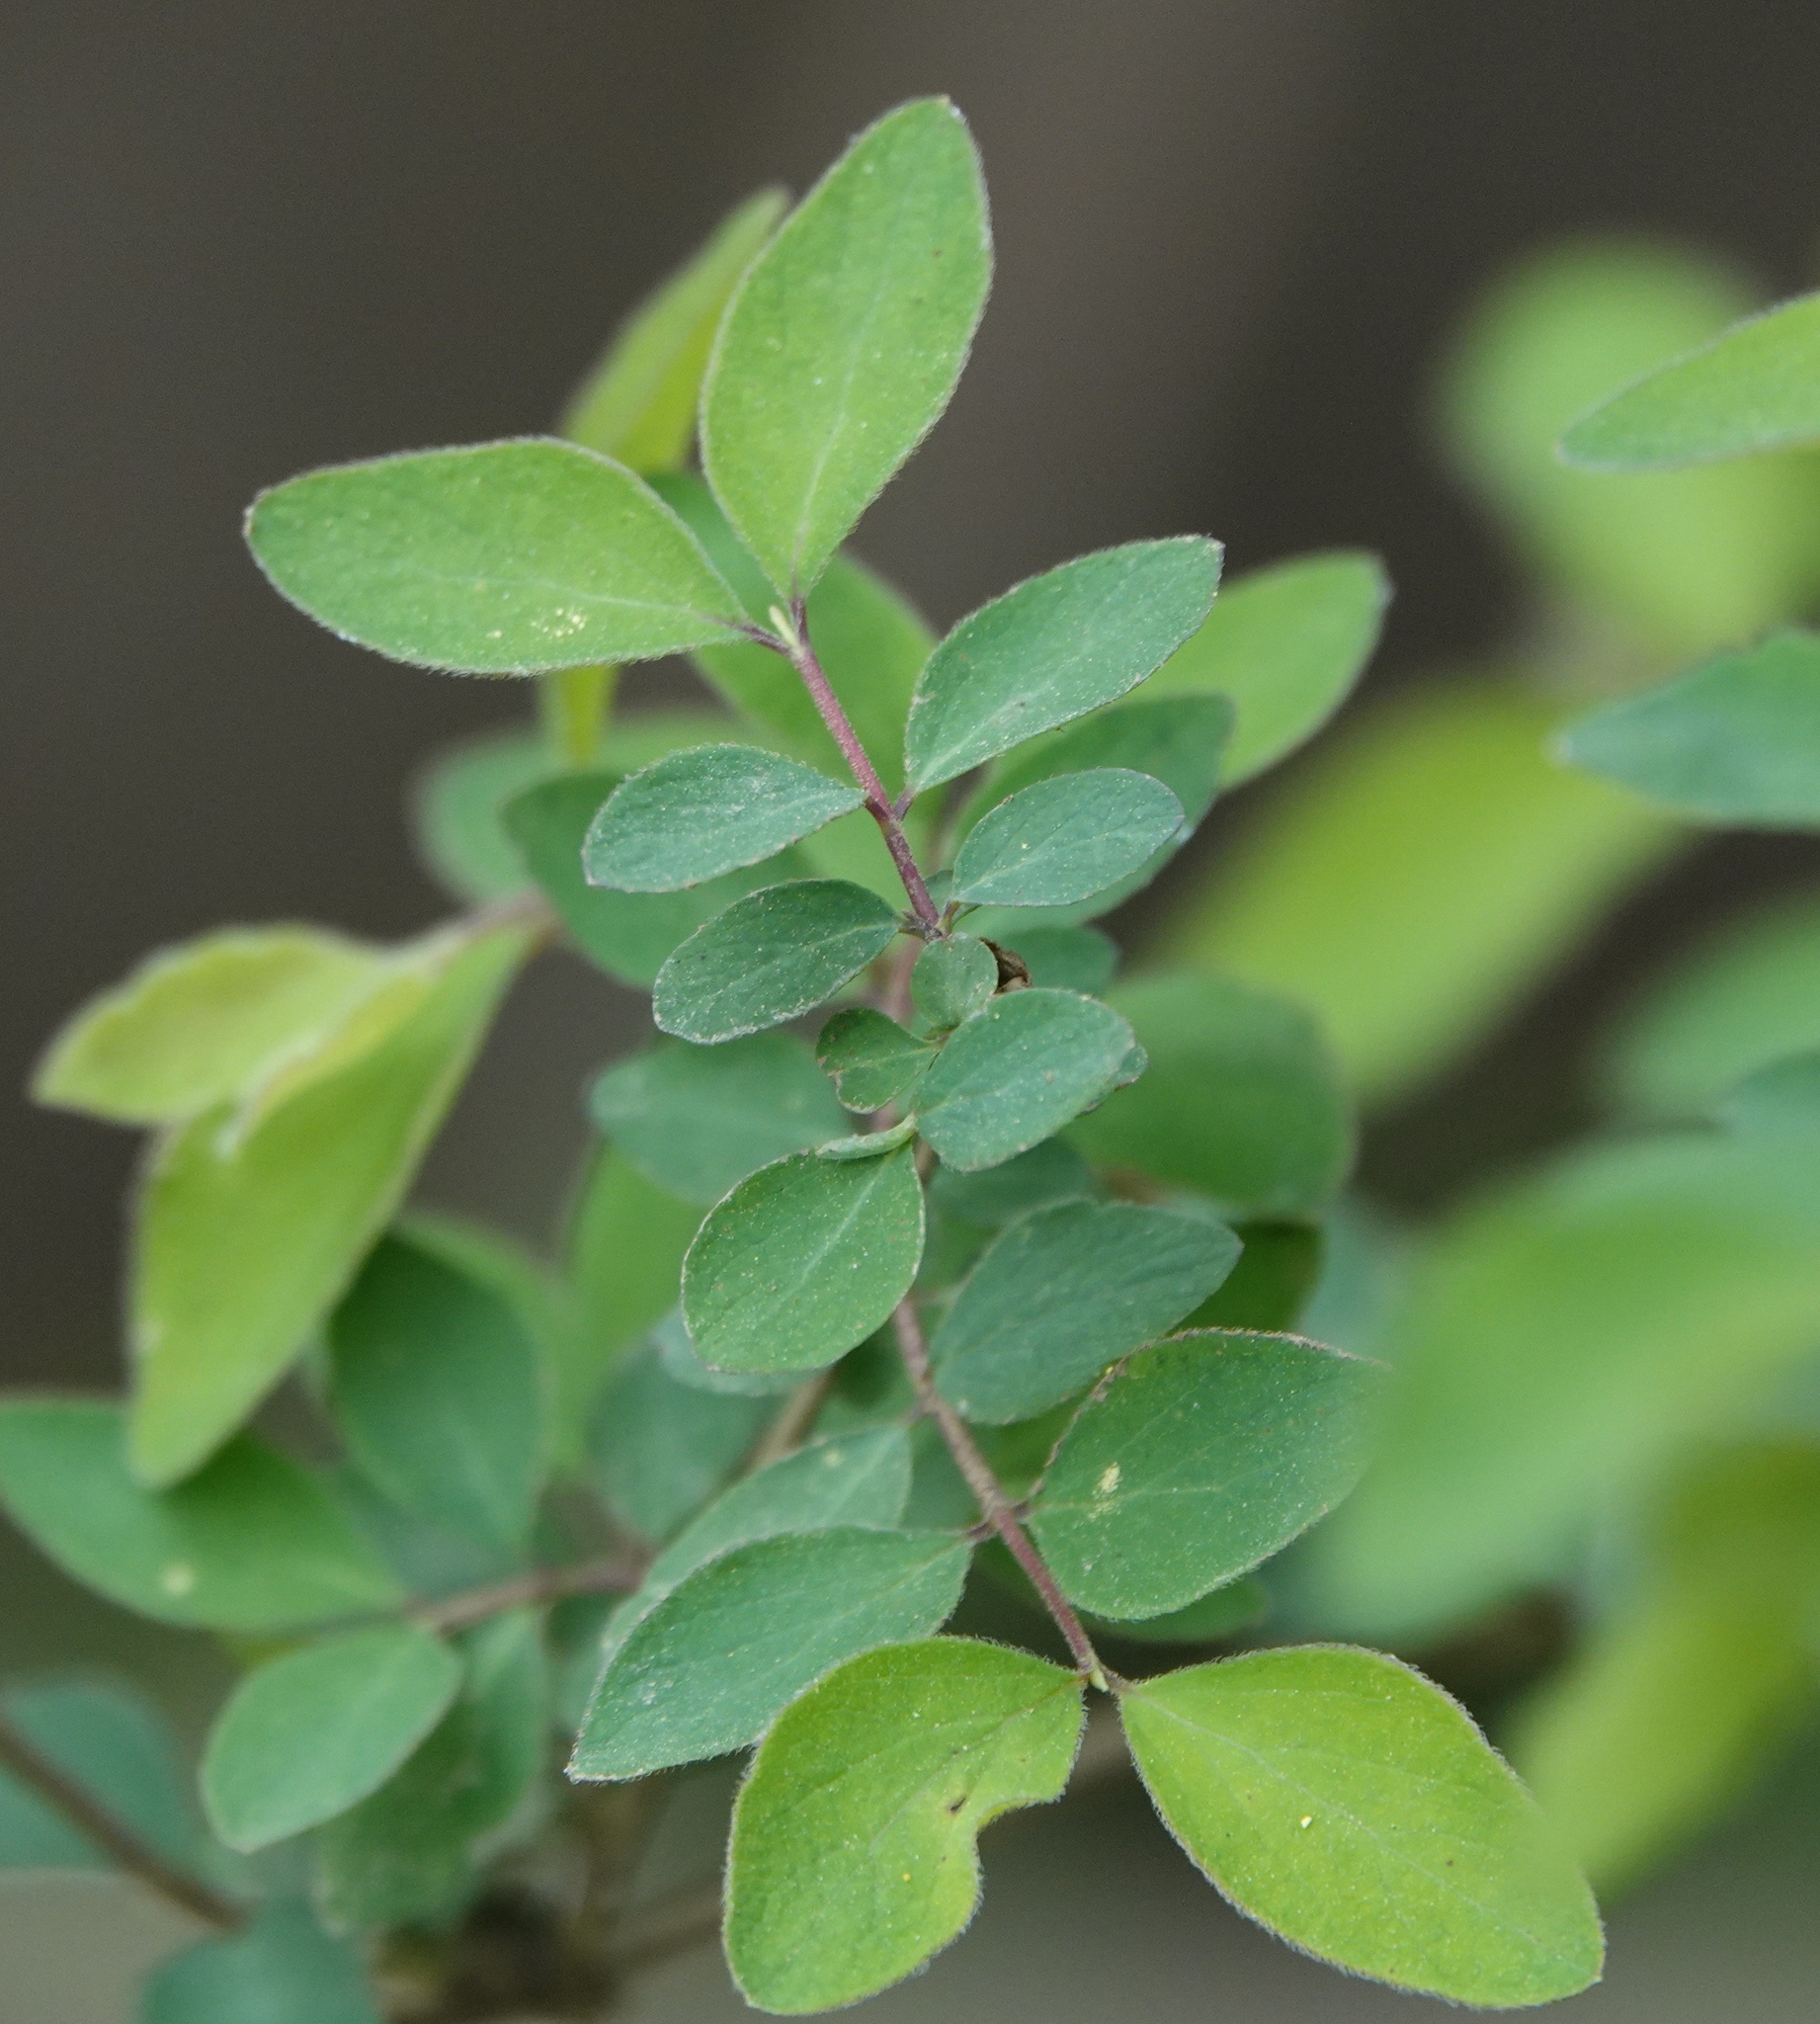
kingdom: Plantae
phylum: Tracheophyta
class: Magnoliopsida
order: Dipsacales
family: Caprifoliaceae
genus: Symphoricarpos
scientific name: Symphoricarpos orbiculatus
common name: Coralberry
